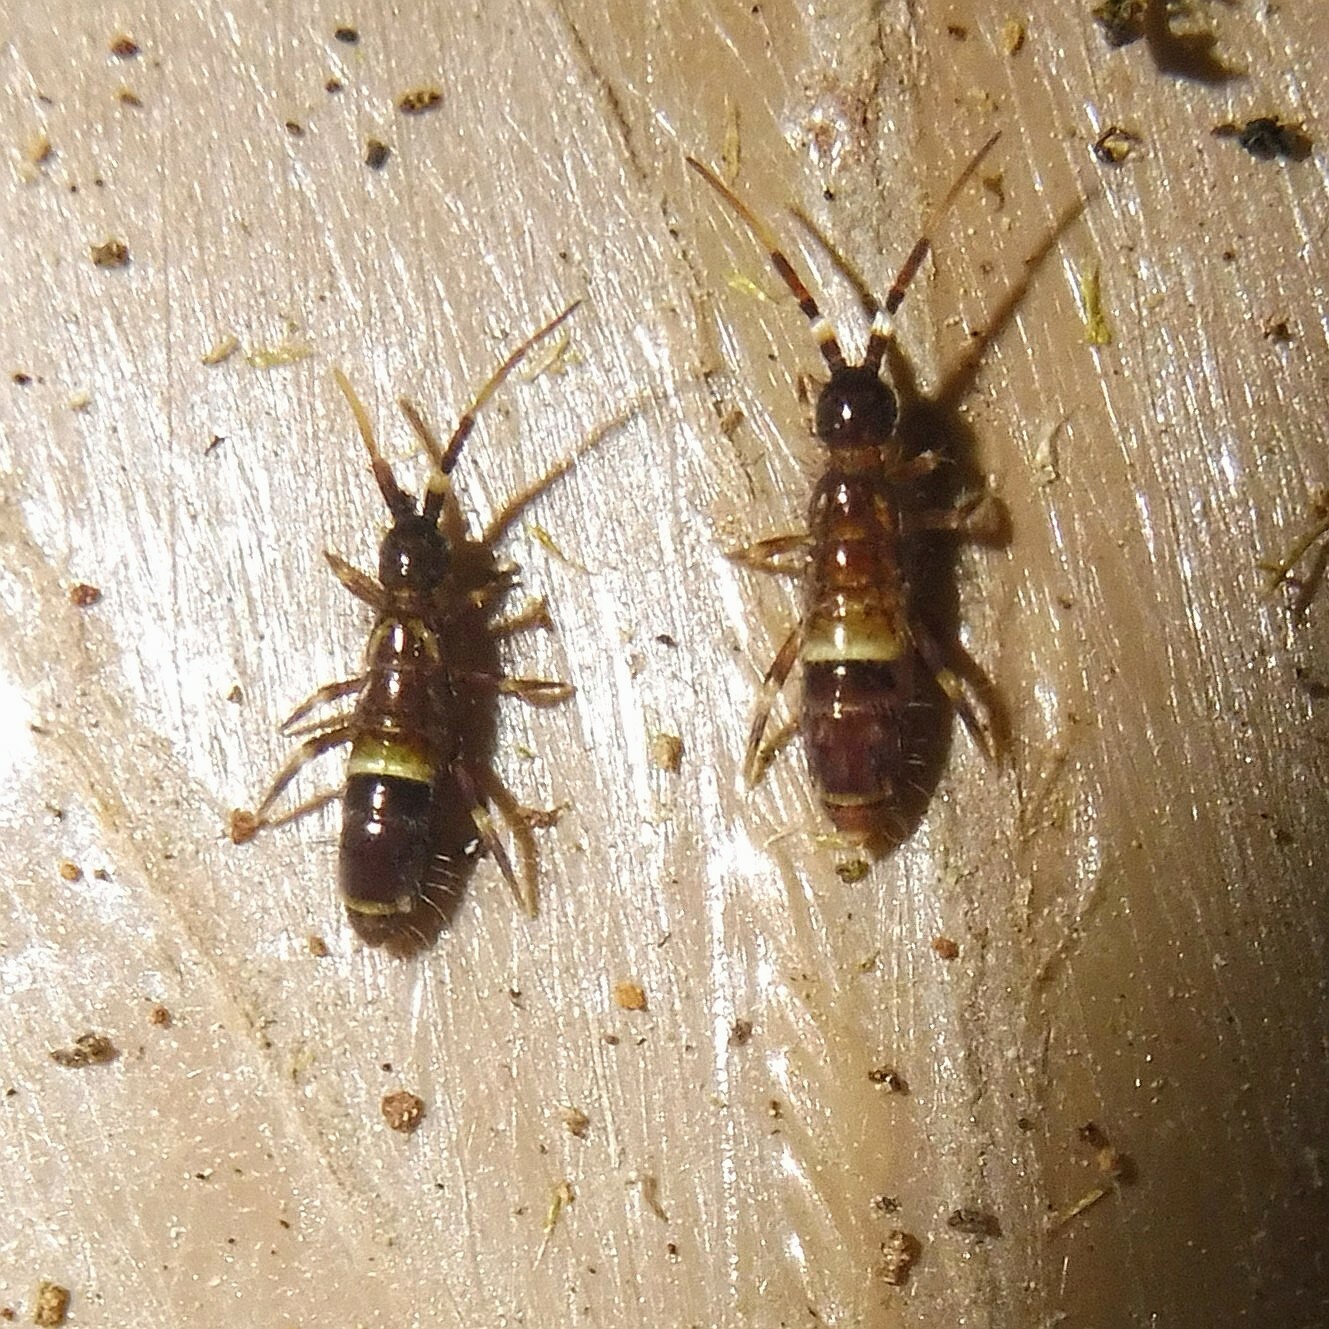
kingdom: Animalia
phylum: Arthropoda
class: Collembola
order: Entomobryomorpha
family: Orchesellidae
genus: Orchesella
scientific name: Orchesella cincta
